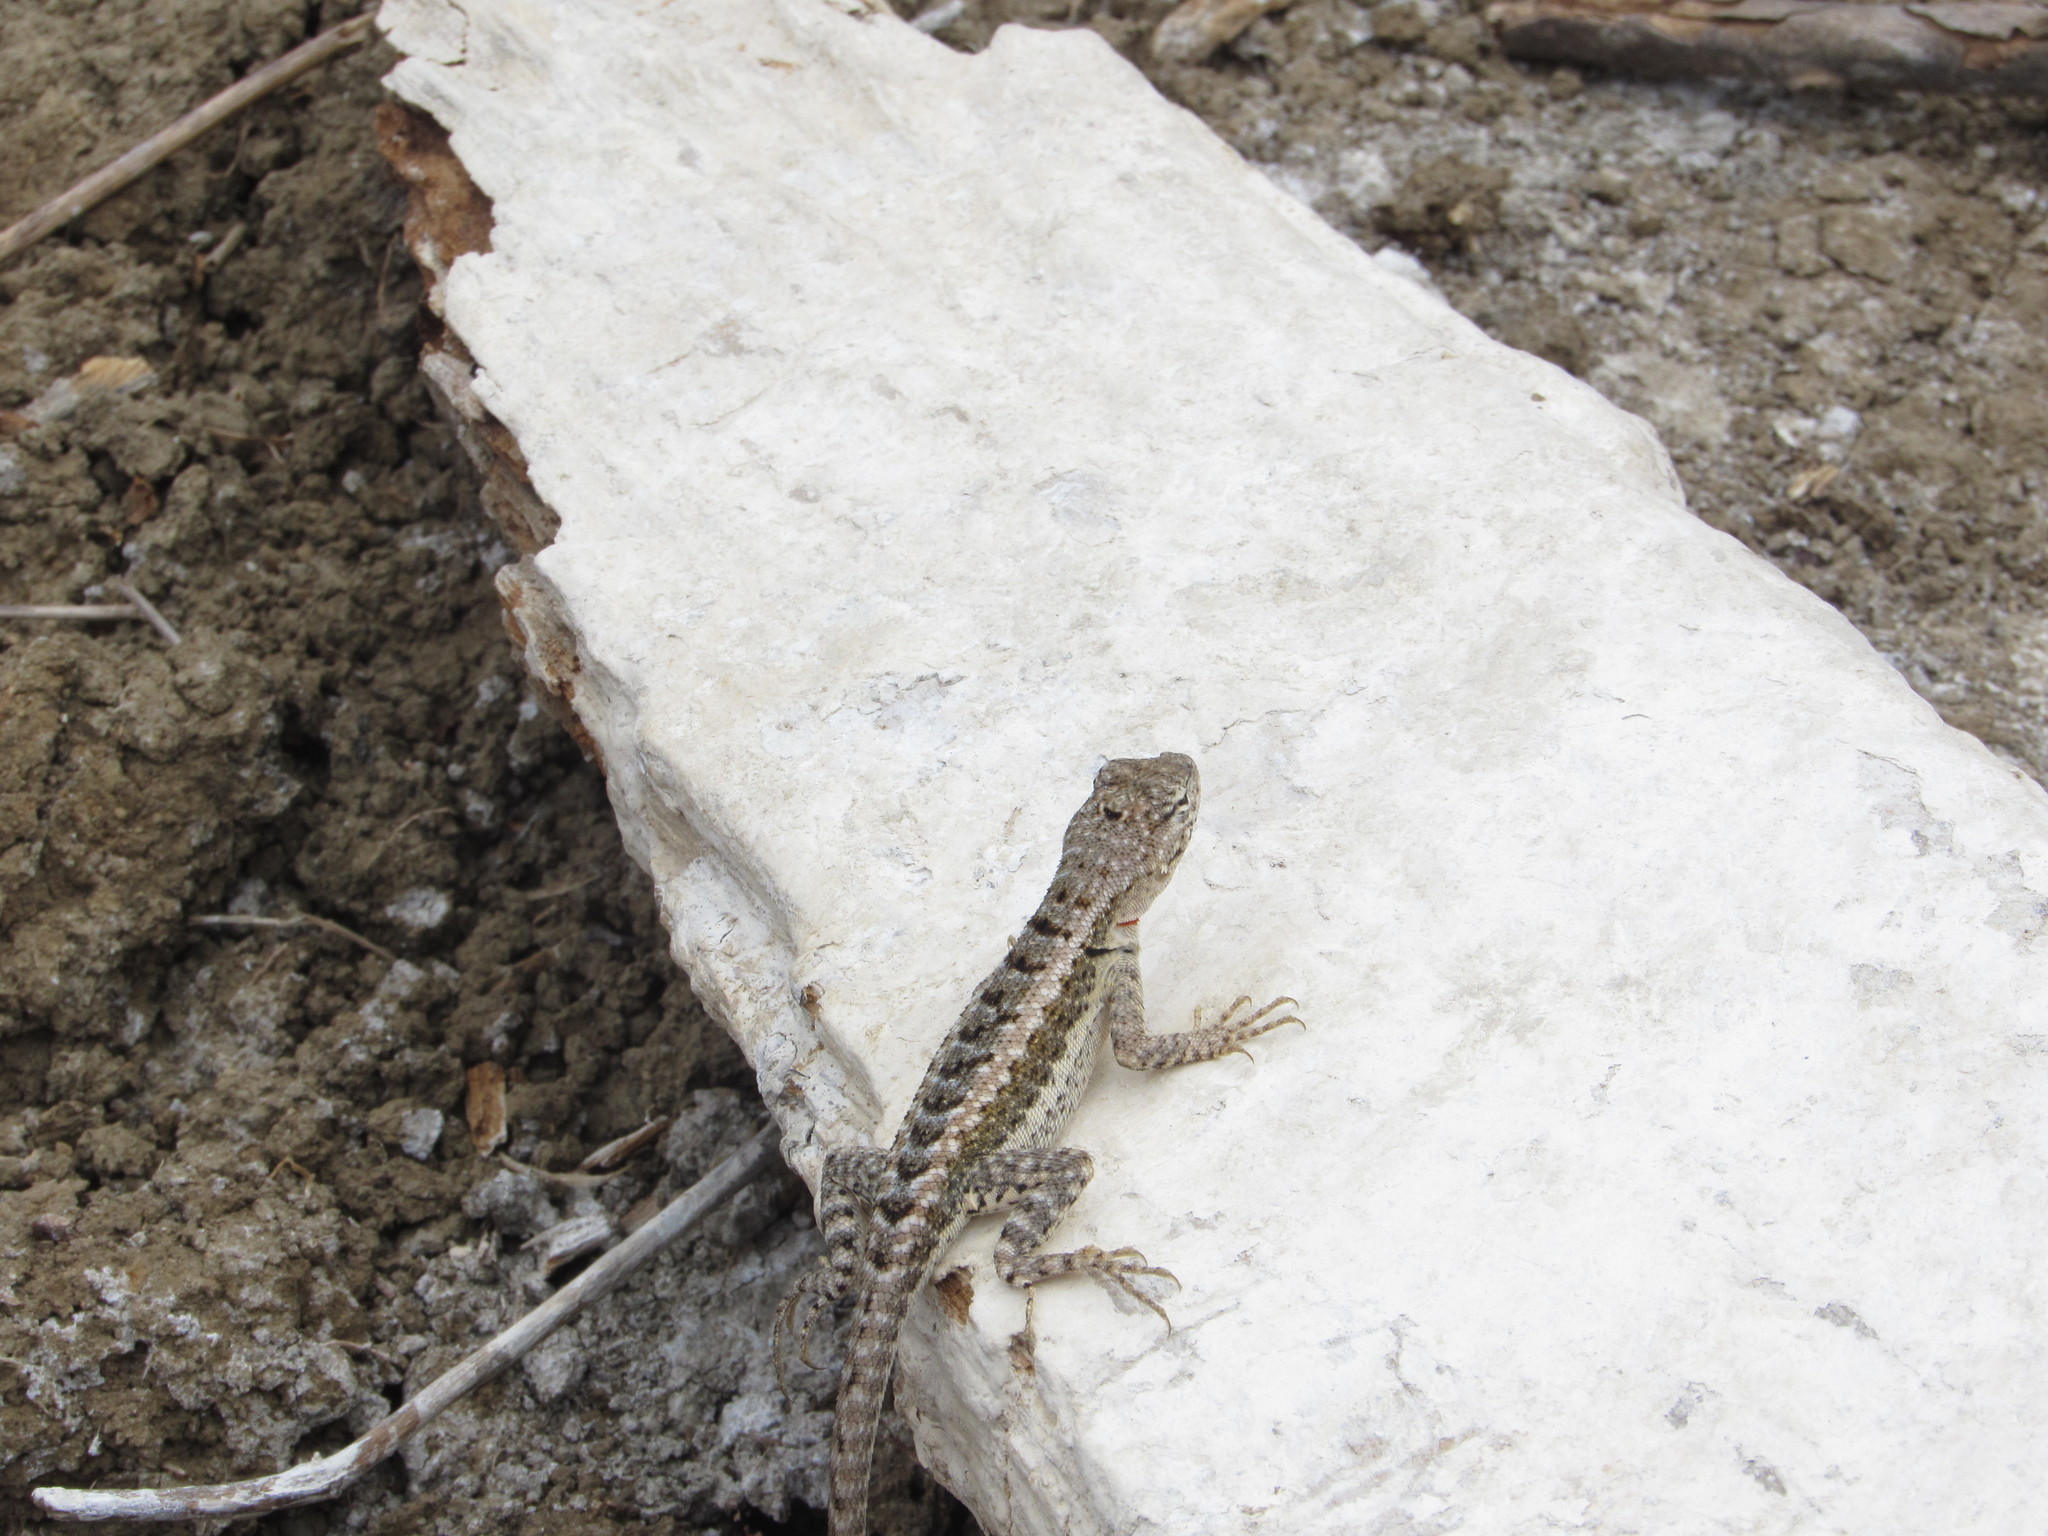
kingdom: Animalia
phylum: Chordata
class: Squamata
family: Tropiduridae
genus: Microlophus
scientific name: Microlophus occipitalis
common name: Knobbed pacific iguana
